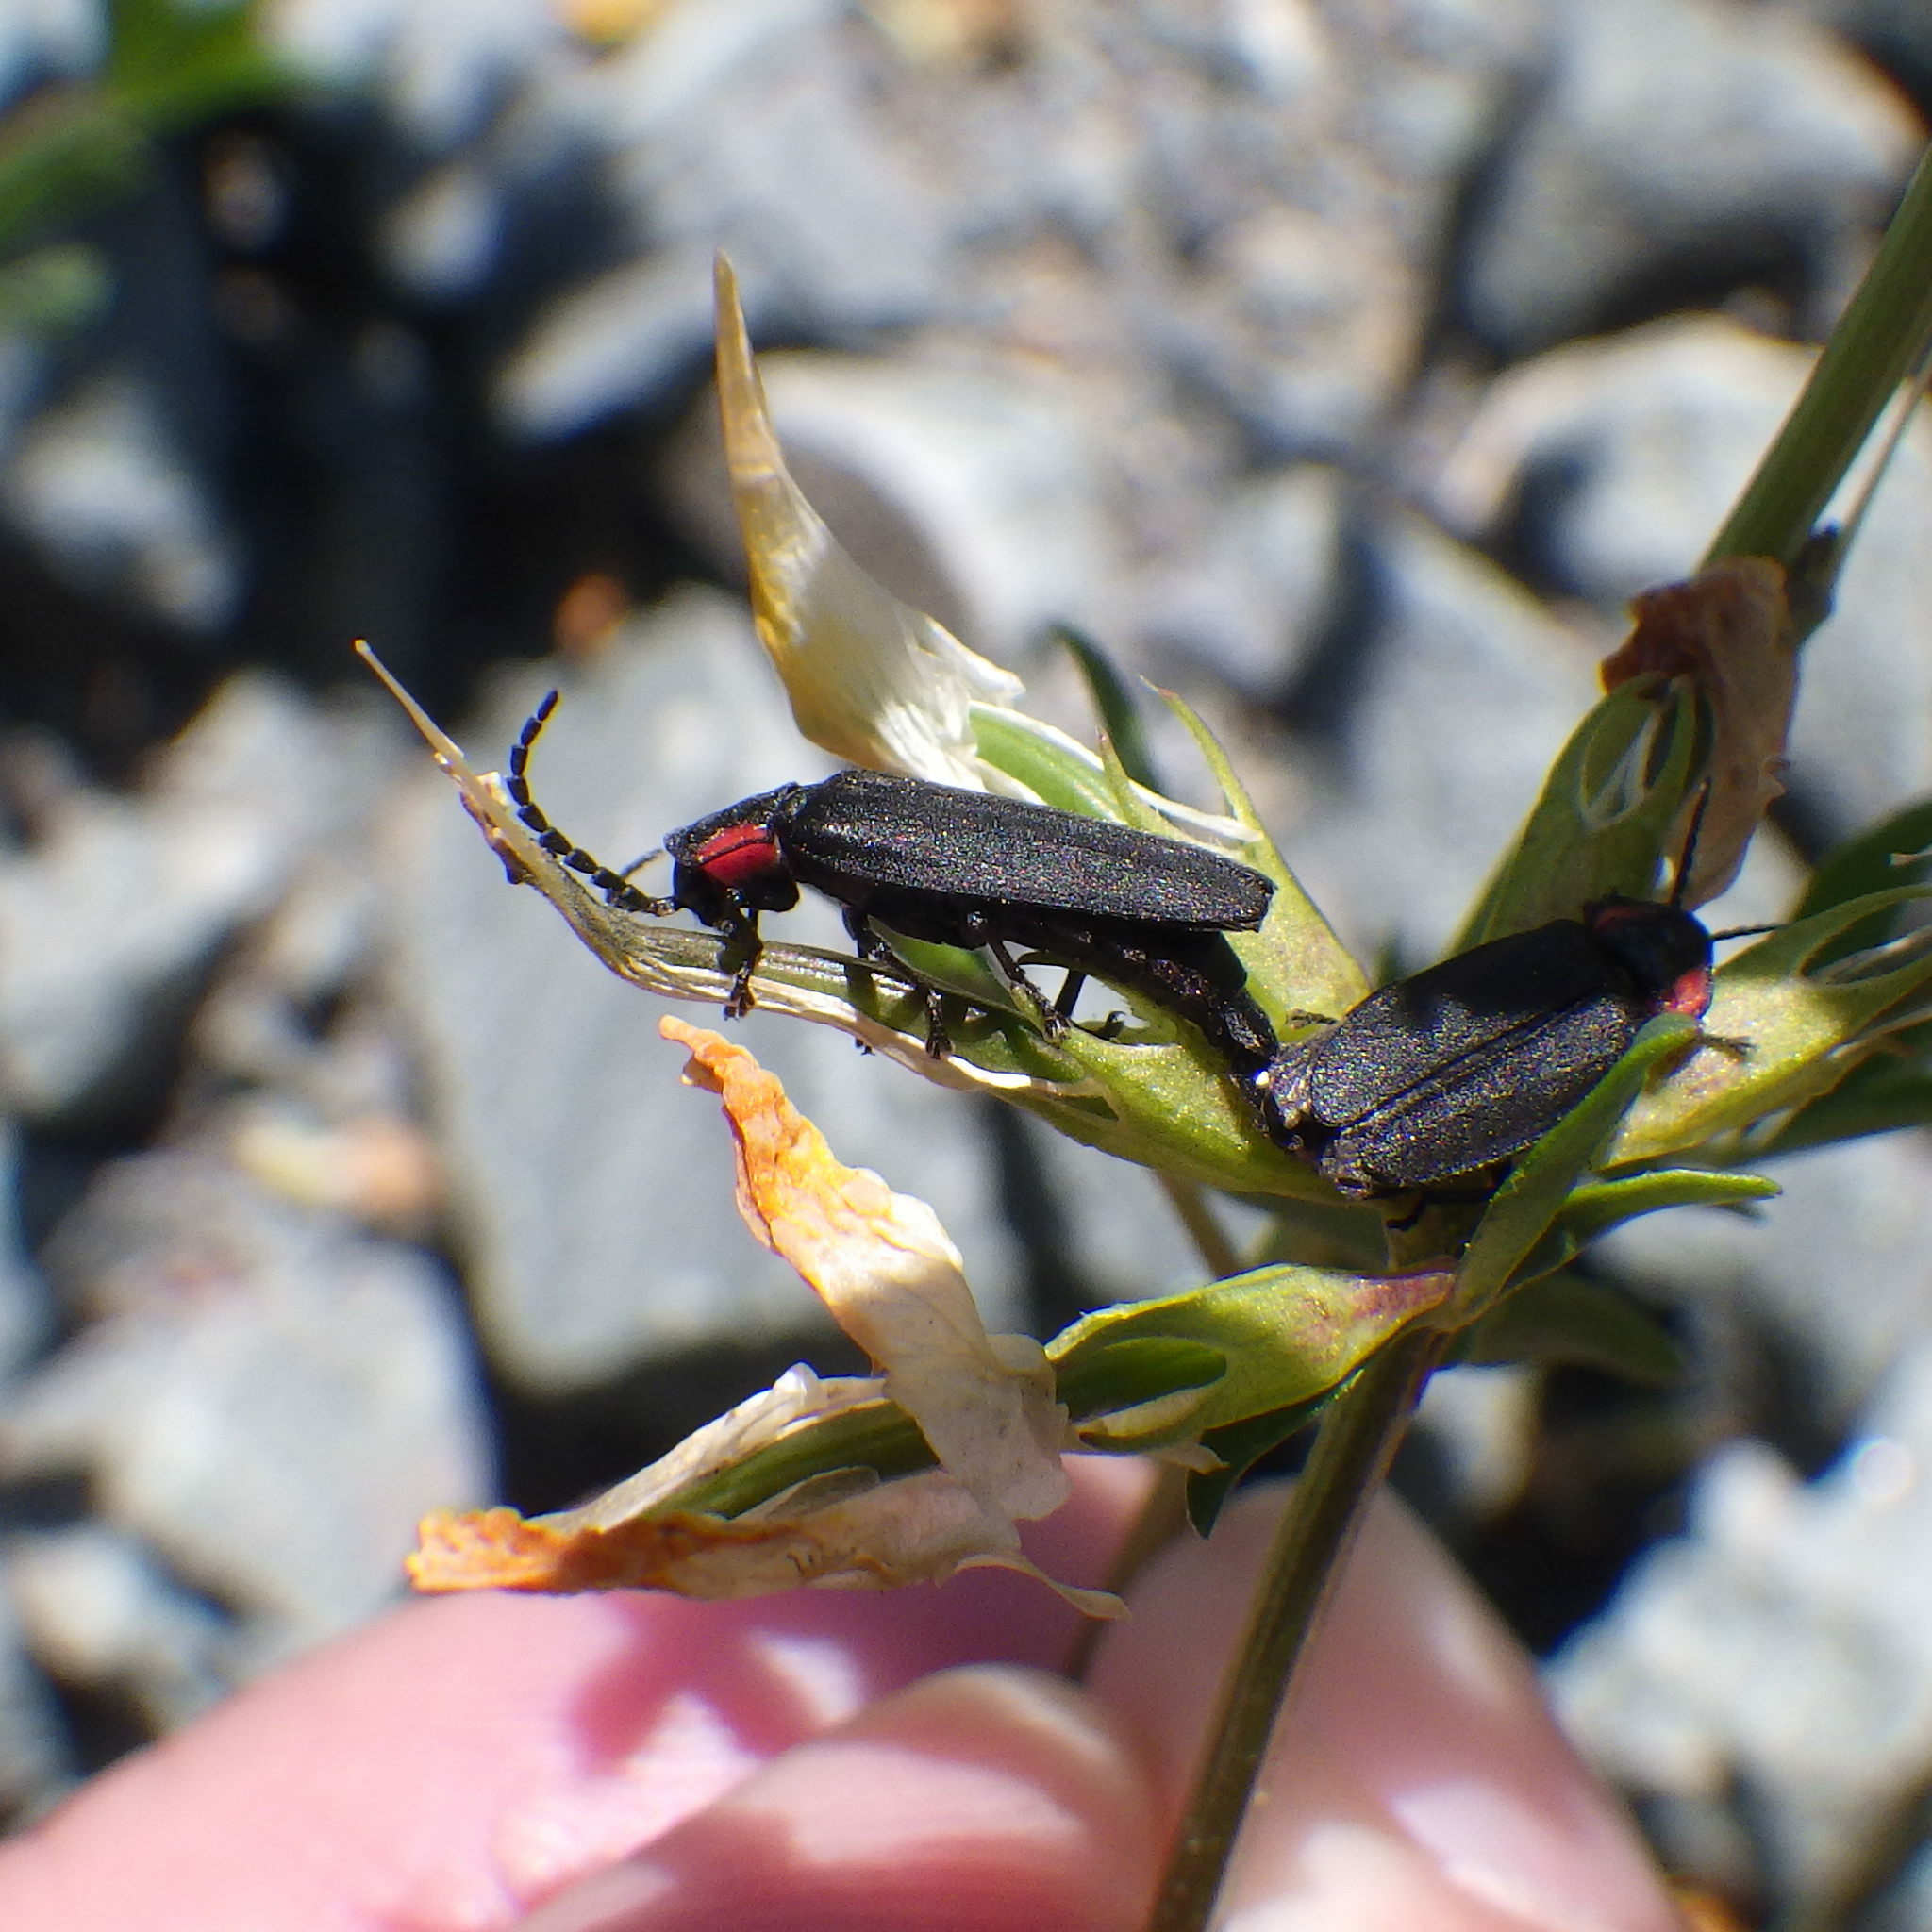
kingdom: Animalia
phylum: Arthropoda
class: Insecta
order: Coleoptera
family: Lampyridae
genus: Pyropyga
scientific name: Pyropyga nigricans
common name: Dark firefly
